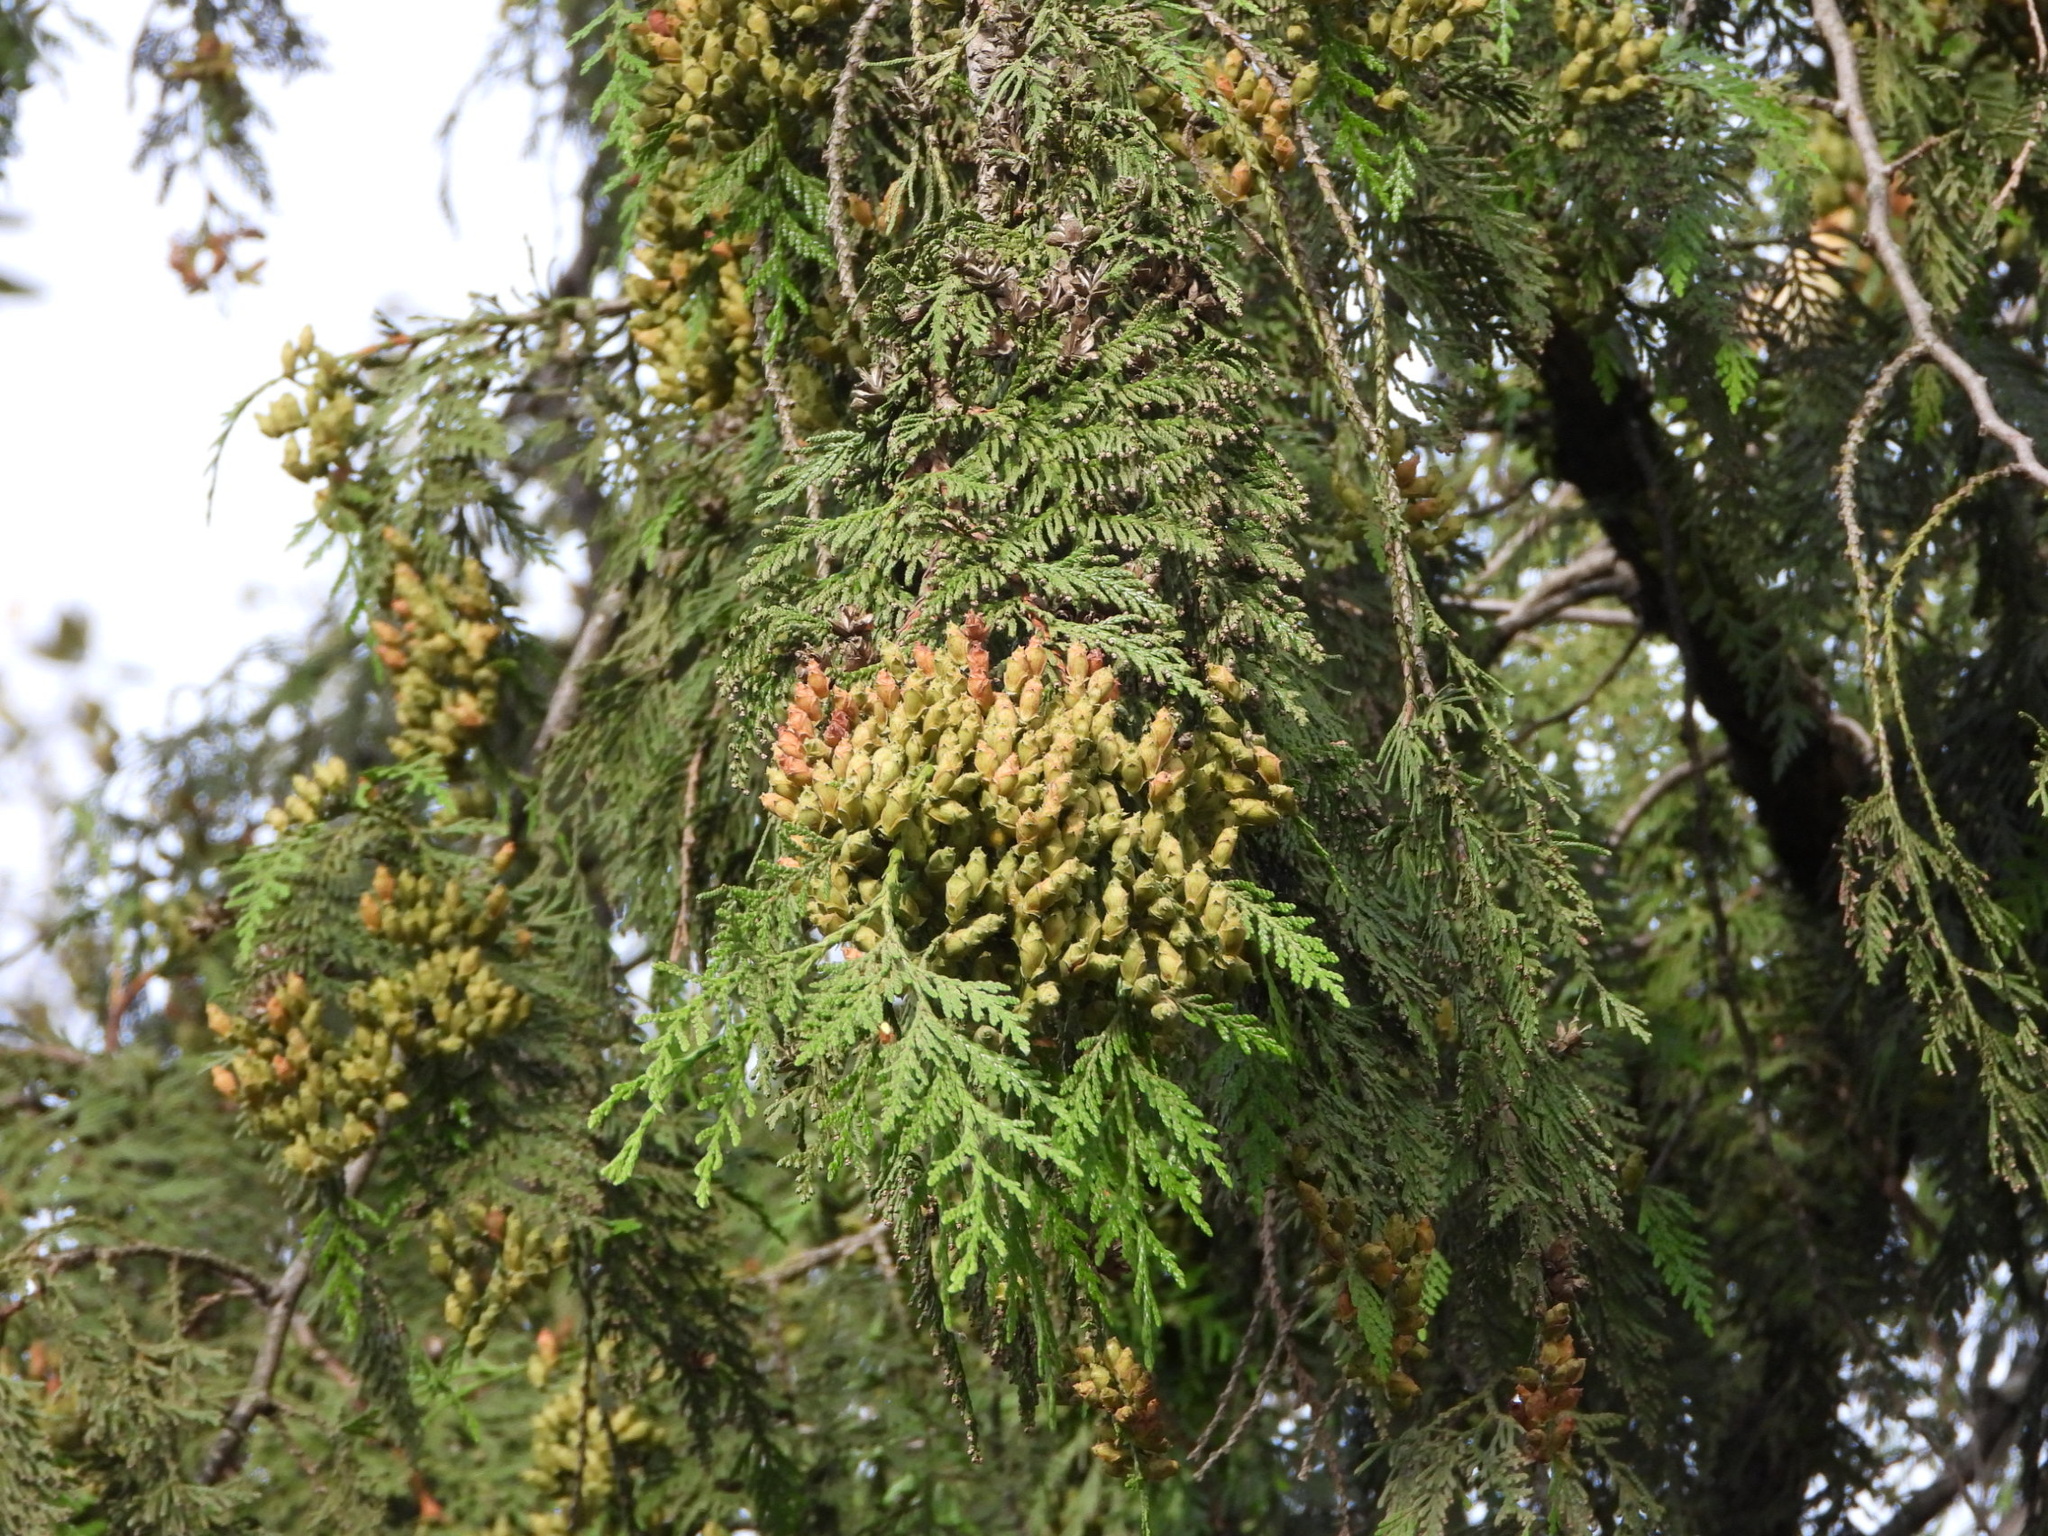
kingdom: Plantae
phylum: Tracheophyta
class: Pinopsida
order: Pinales
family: Cupressaceae
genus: Thuja
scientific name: Thuja plicata
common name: Western red-cedar
